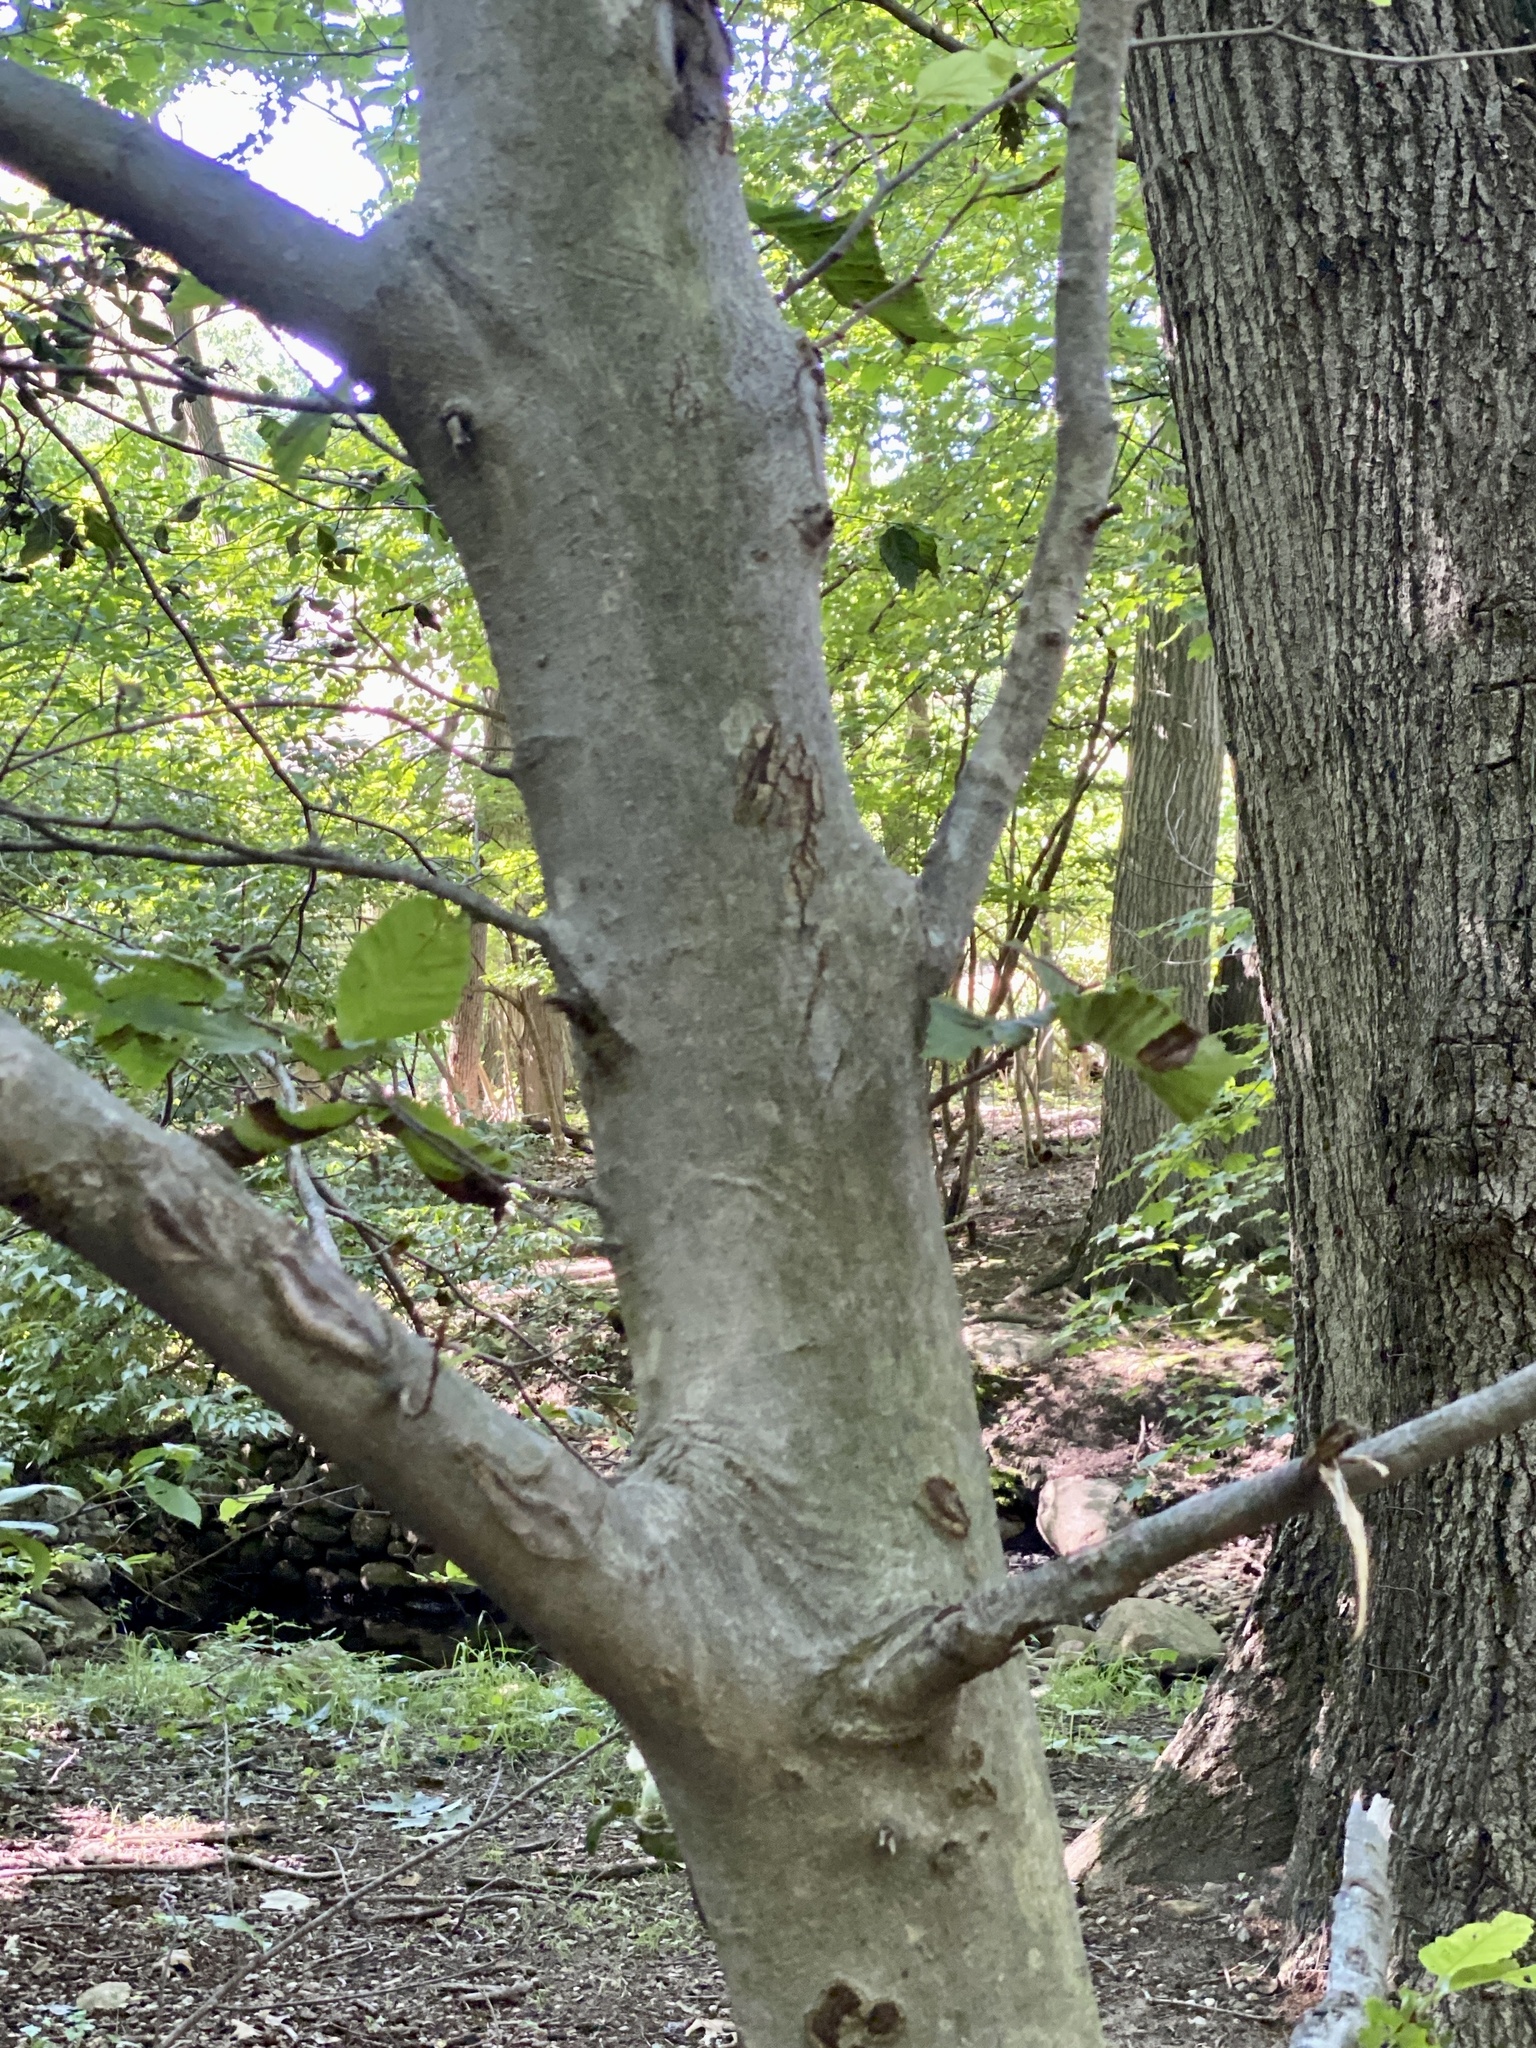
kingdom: Animalia
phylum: Nematoda
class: Chromadorea
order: Rhabditida
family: Anguinidae
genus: Litylenchus
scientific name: Litylenchus crenatae
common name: Beech leaf disease
